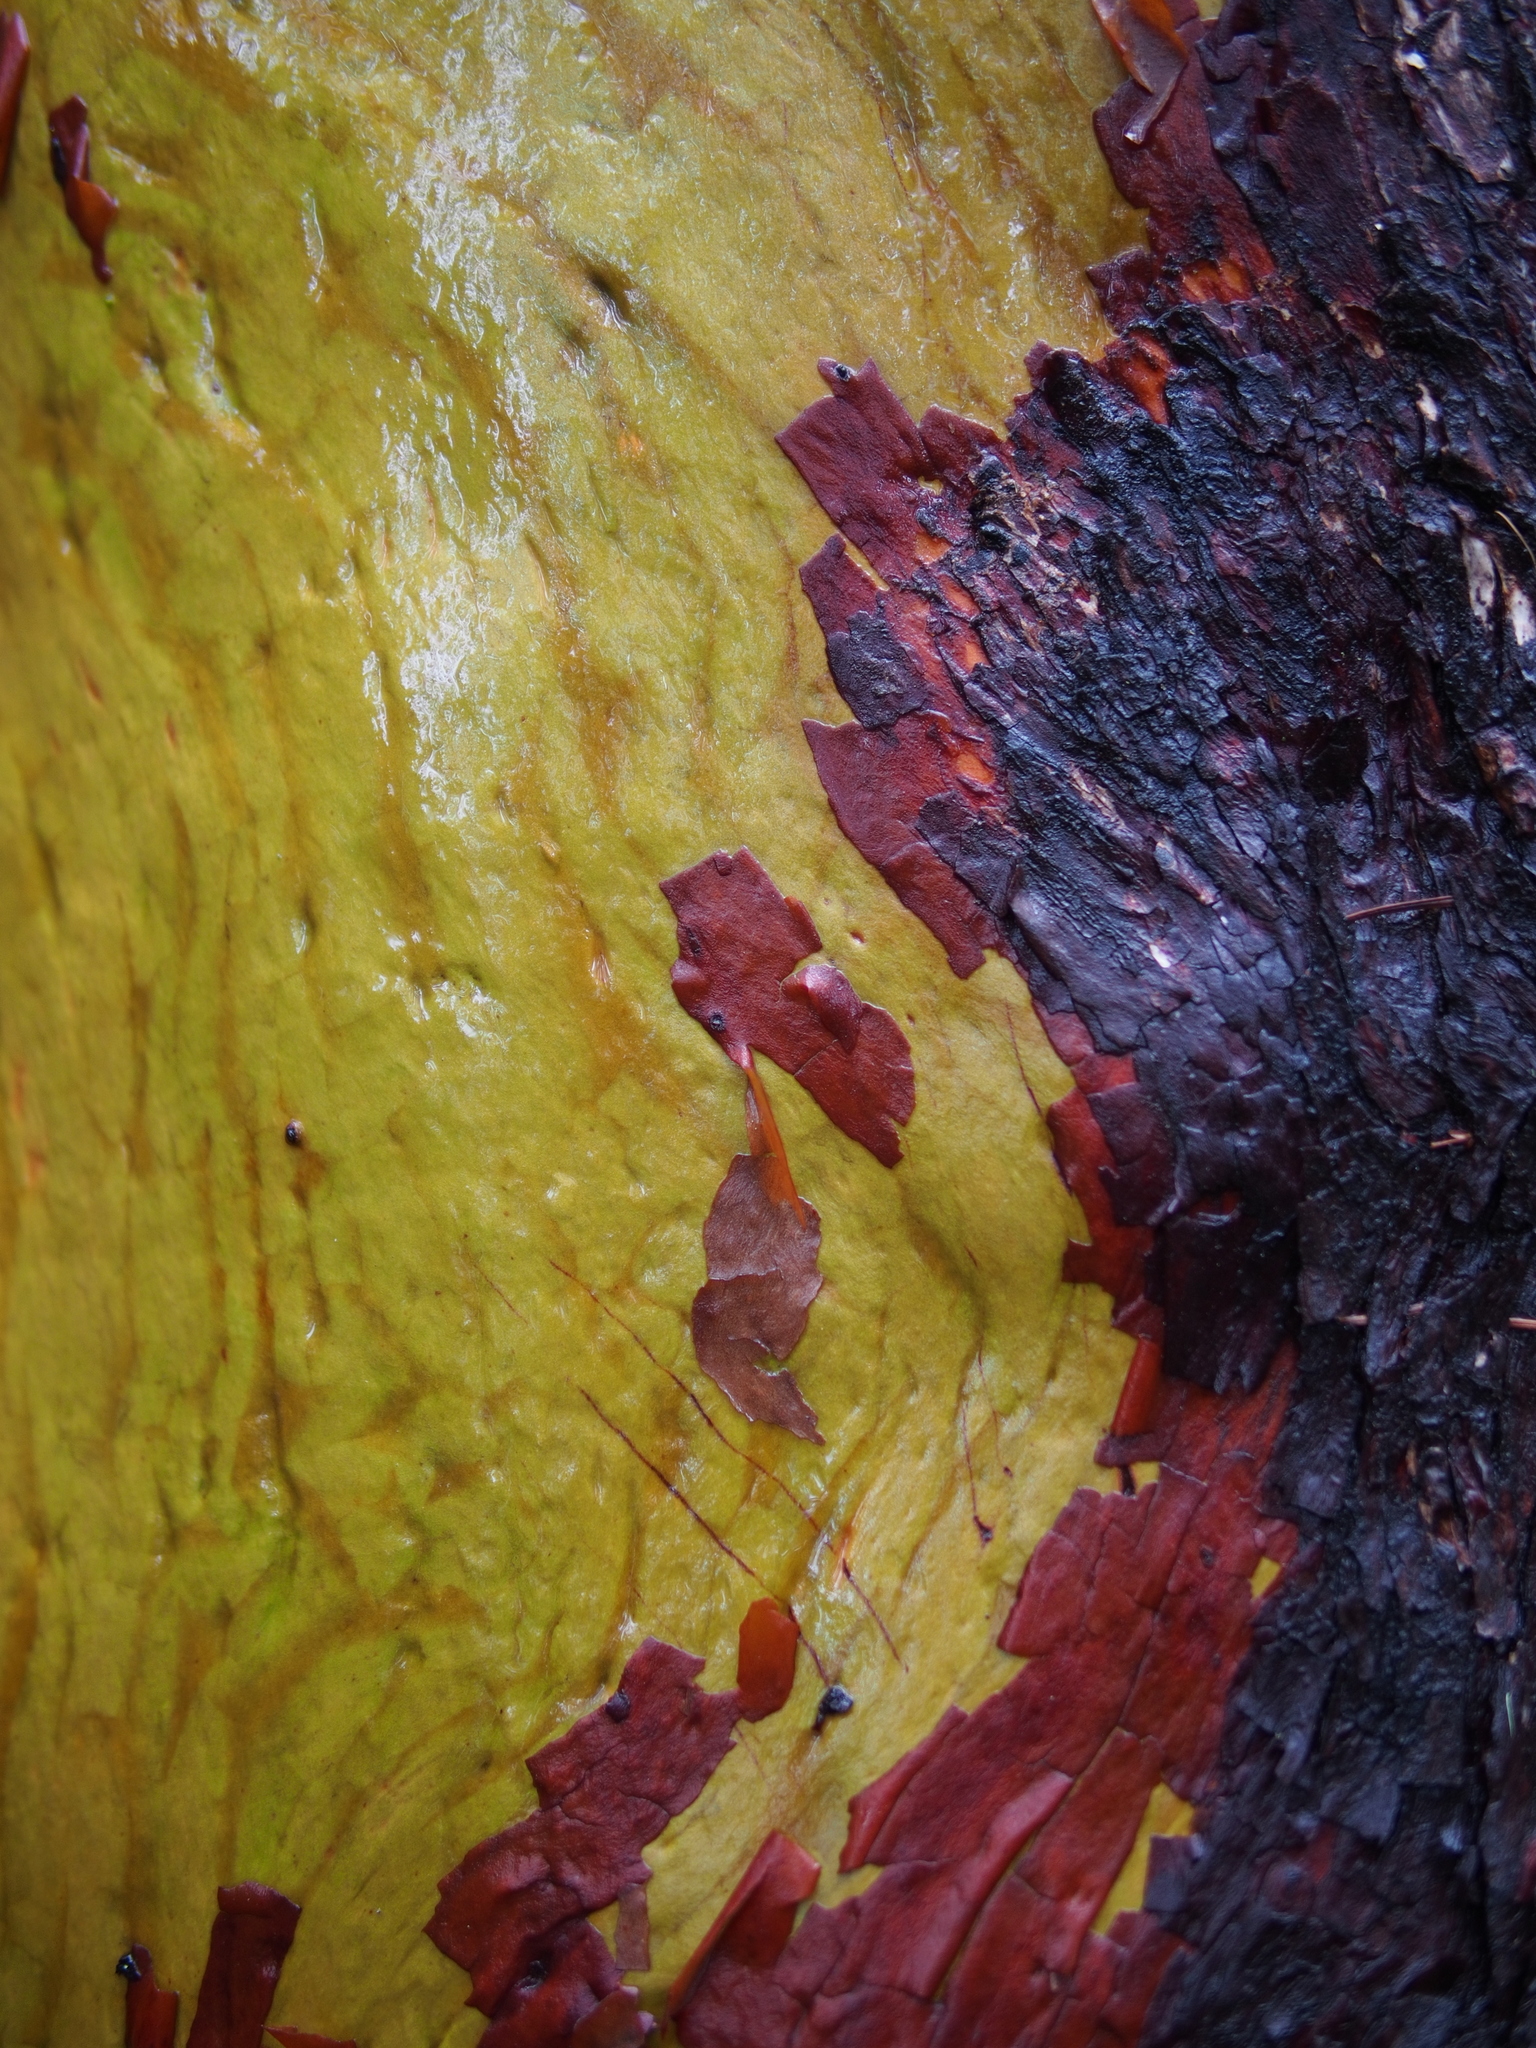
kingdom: Plantae
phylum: Tracheophyta
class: Magnoliopsida
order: Ericales
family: Ericaceae
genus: Arbutus
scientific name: Arbutus menziesii
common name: Pacific madrone
